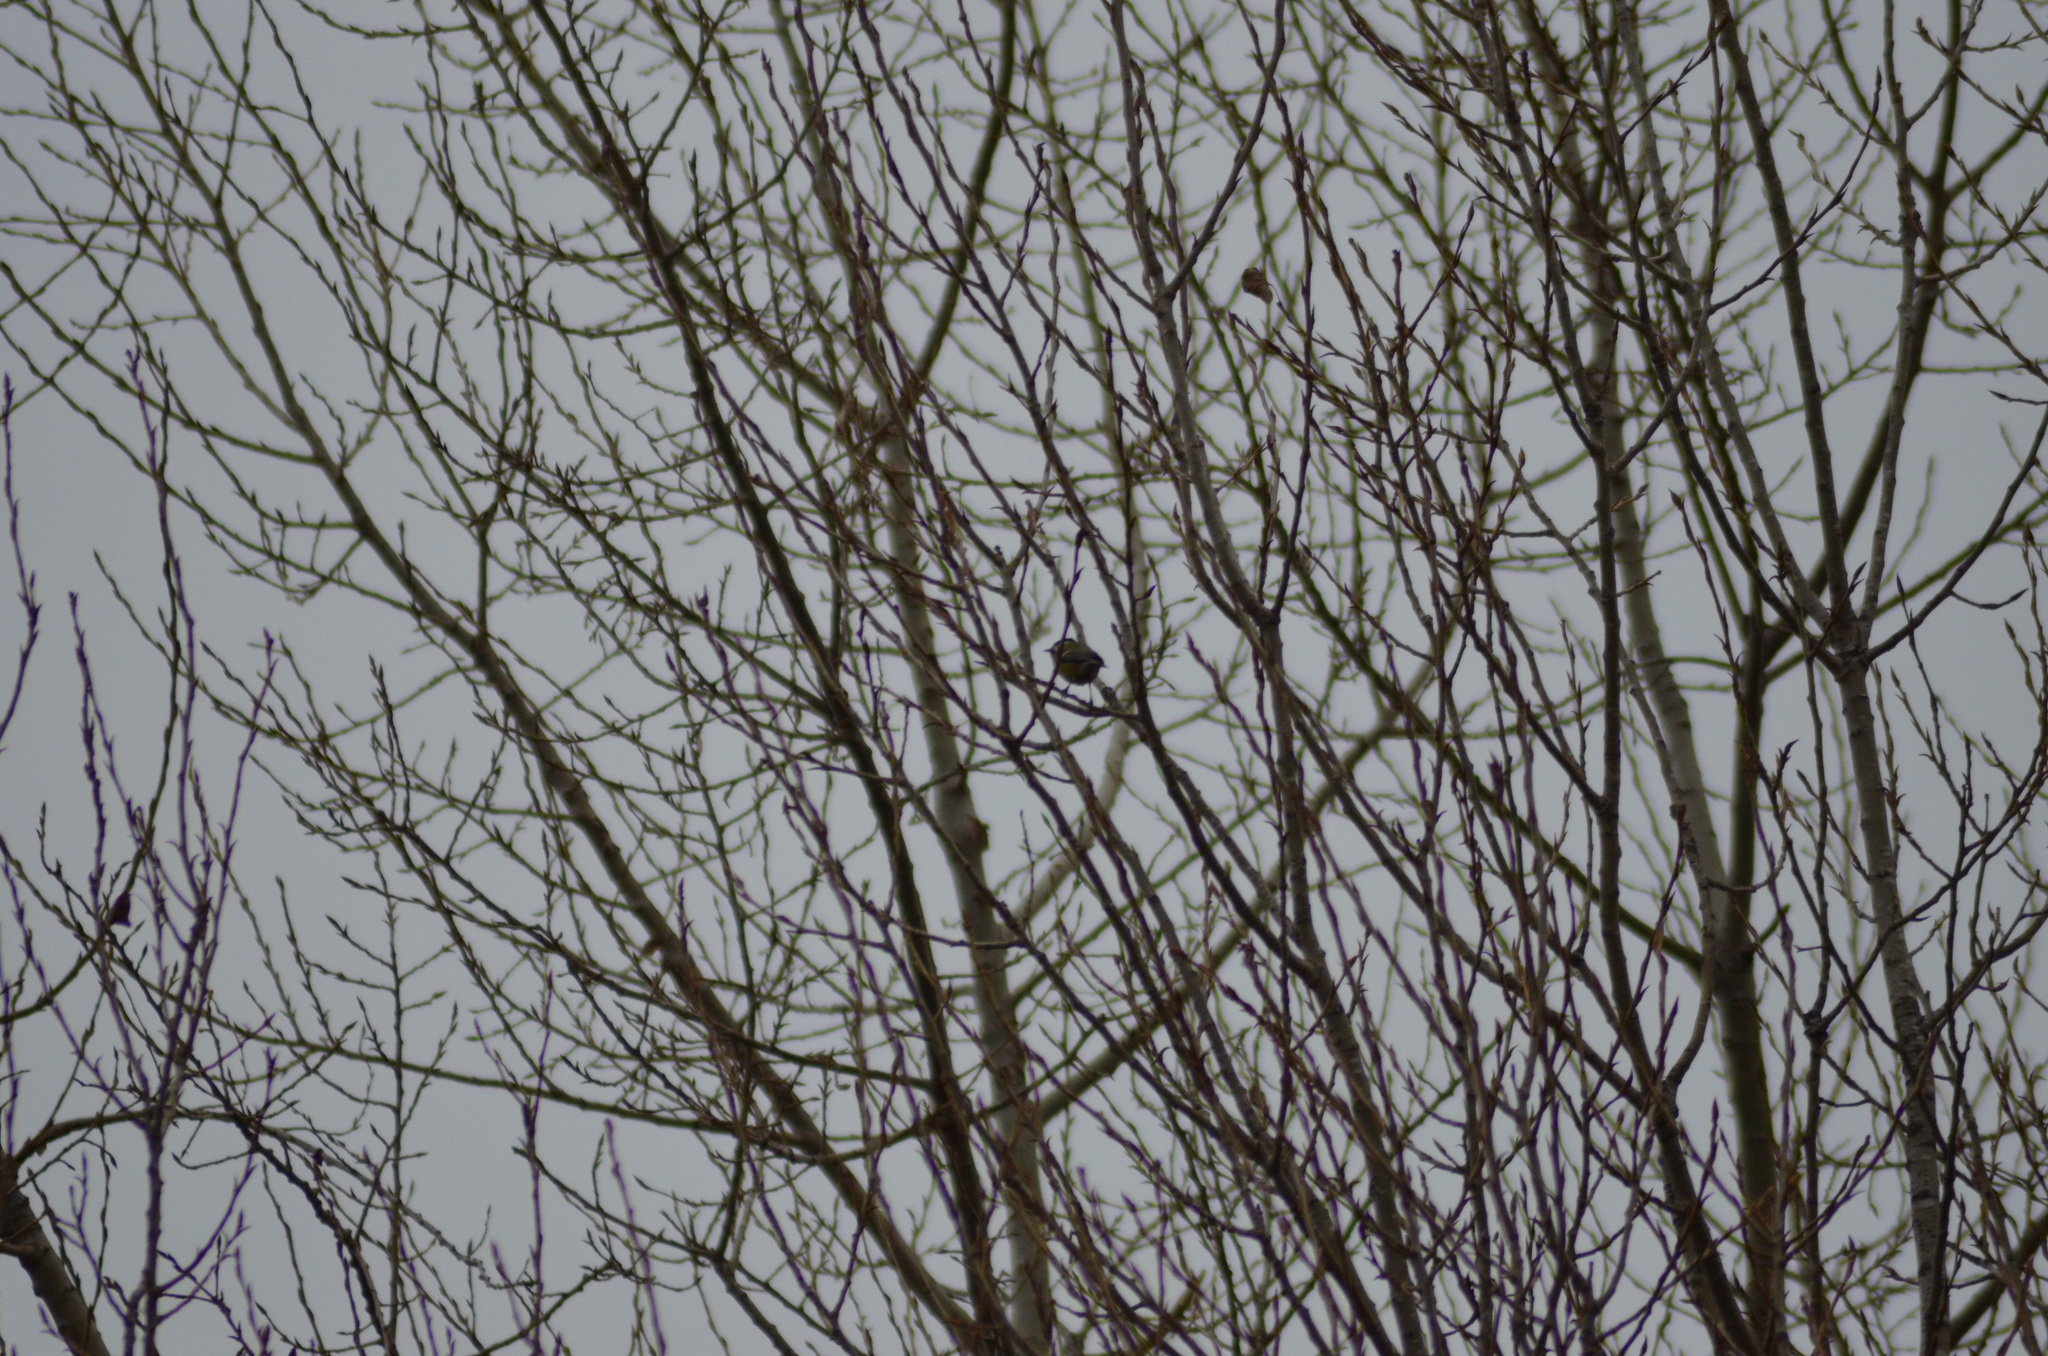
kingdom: Animalia
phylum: Chordata
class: Aves
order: Passeriformes
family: Paridae
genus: Parus
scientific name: Parus major
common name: Great tit
